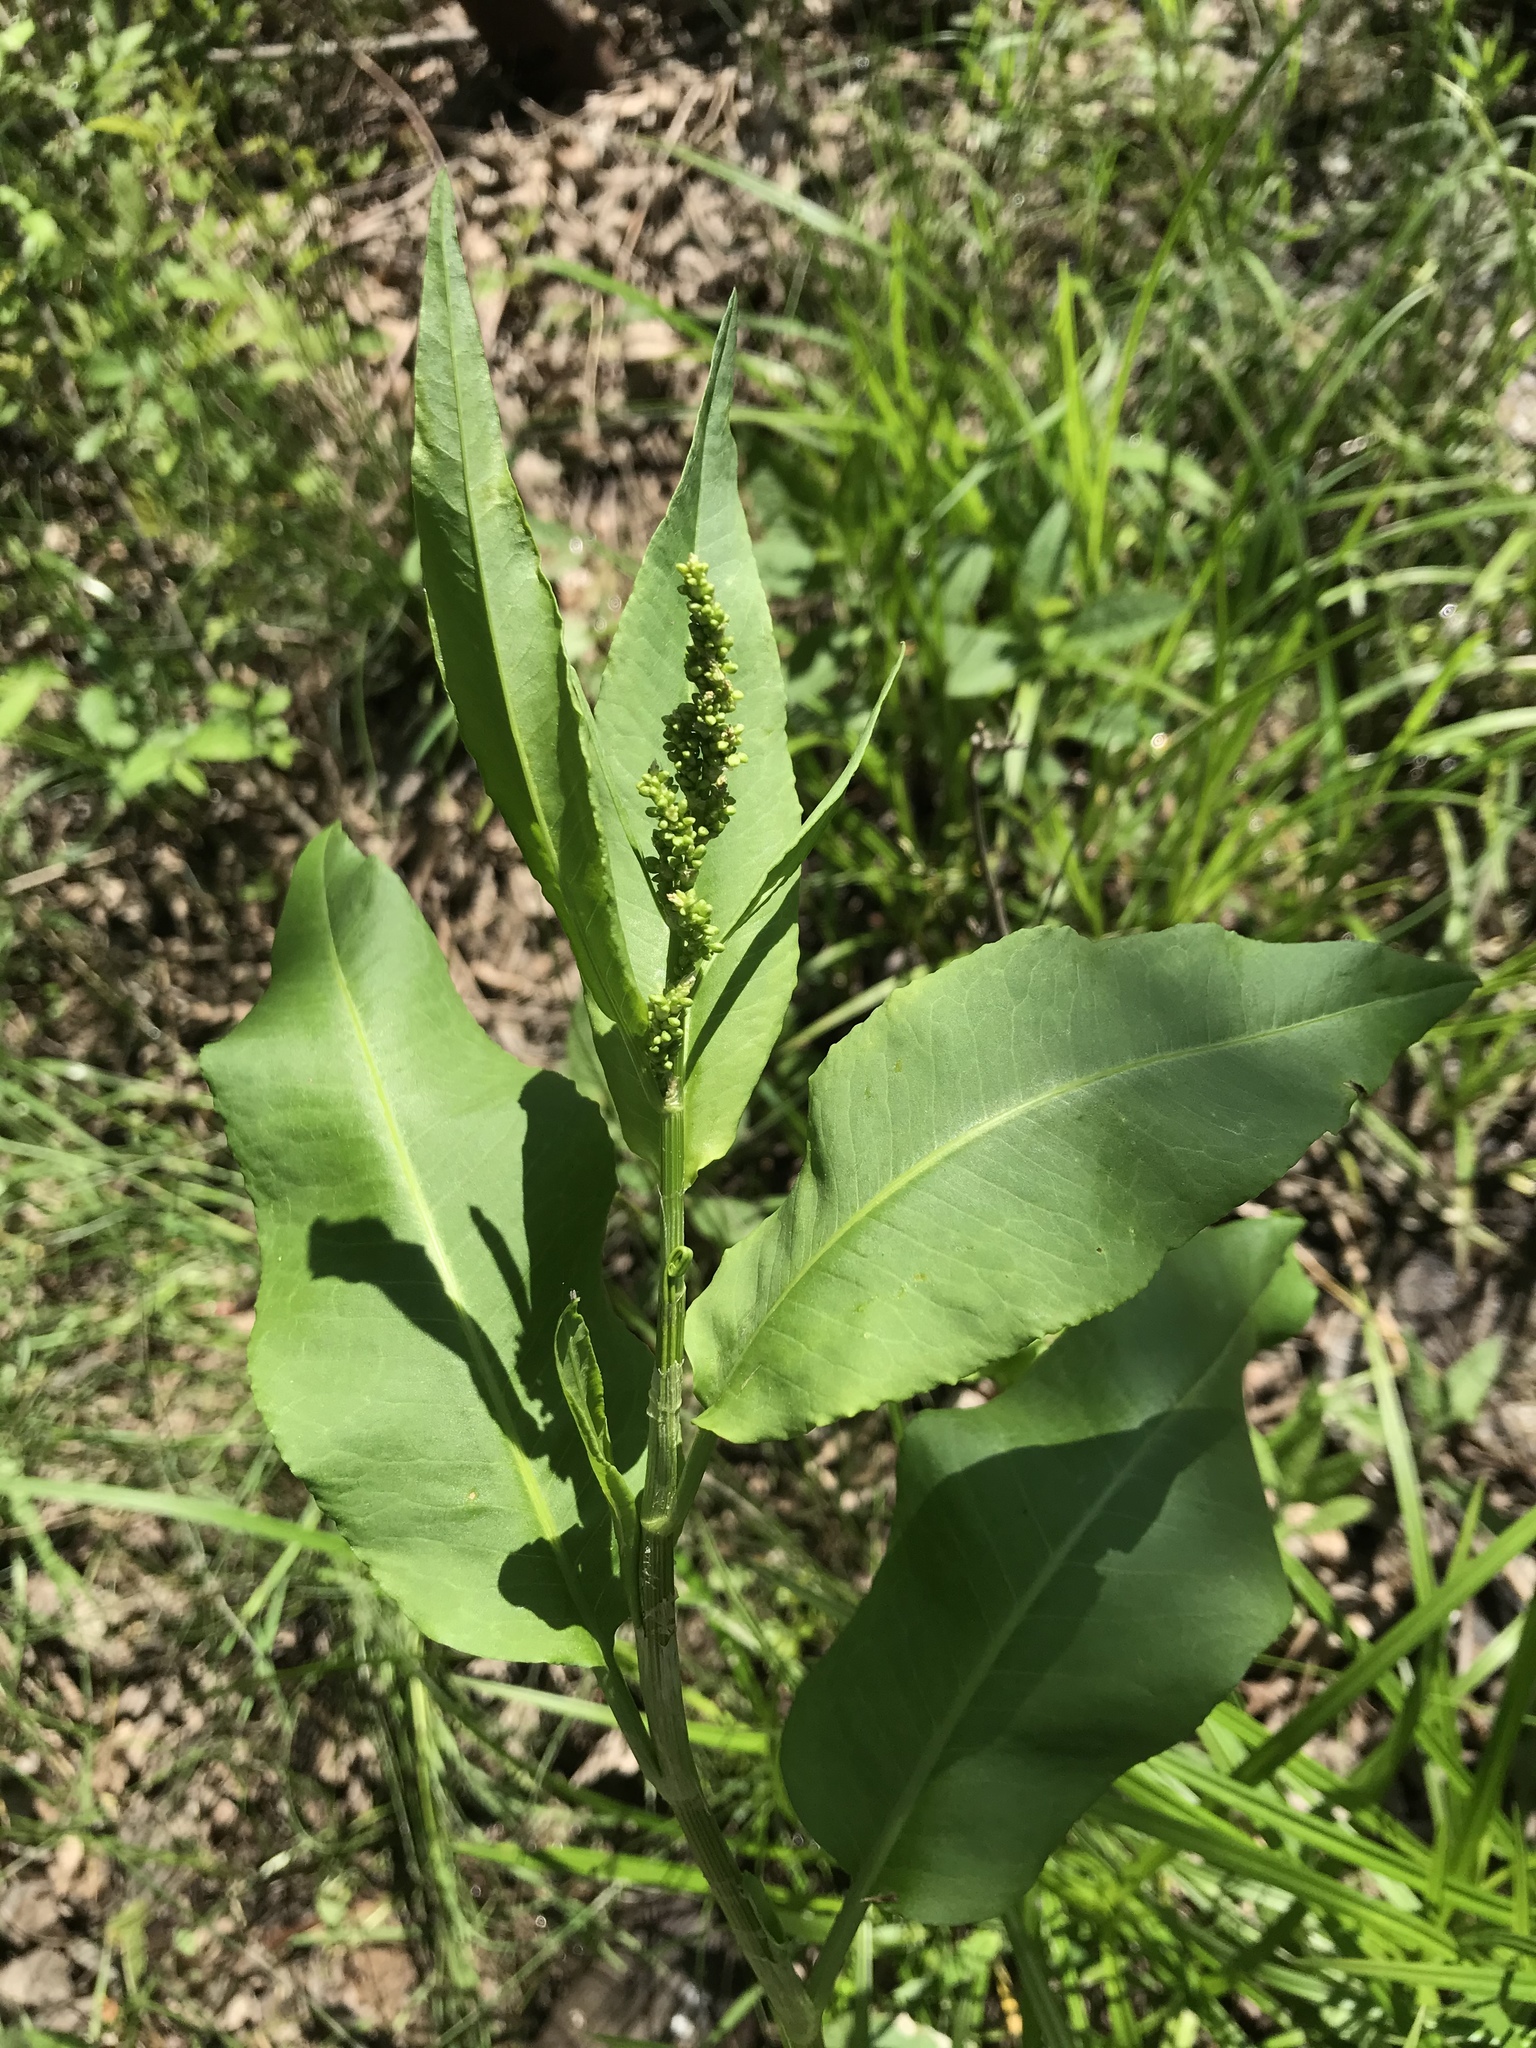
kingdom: Plantae
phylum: Tracheophyta
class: Magnoliopsida
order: Caryophyllales
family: Polygonaceae
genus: Rumex
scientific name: Rumex altissimus
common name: Smooth dock
